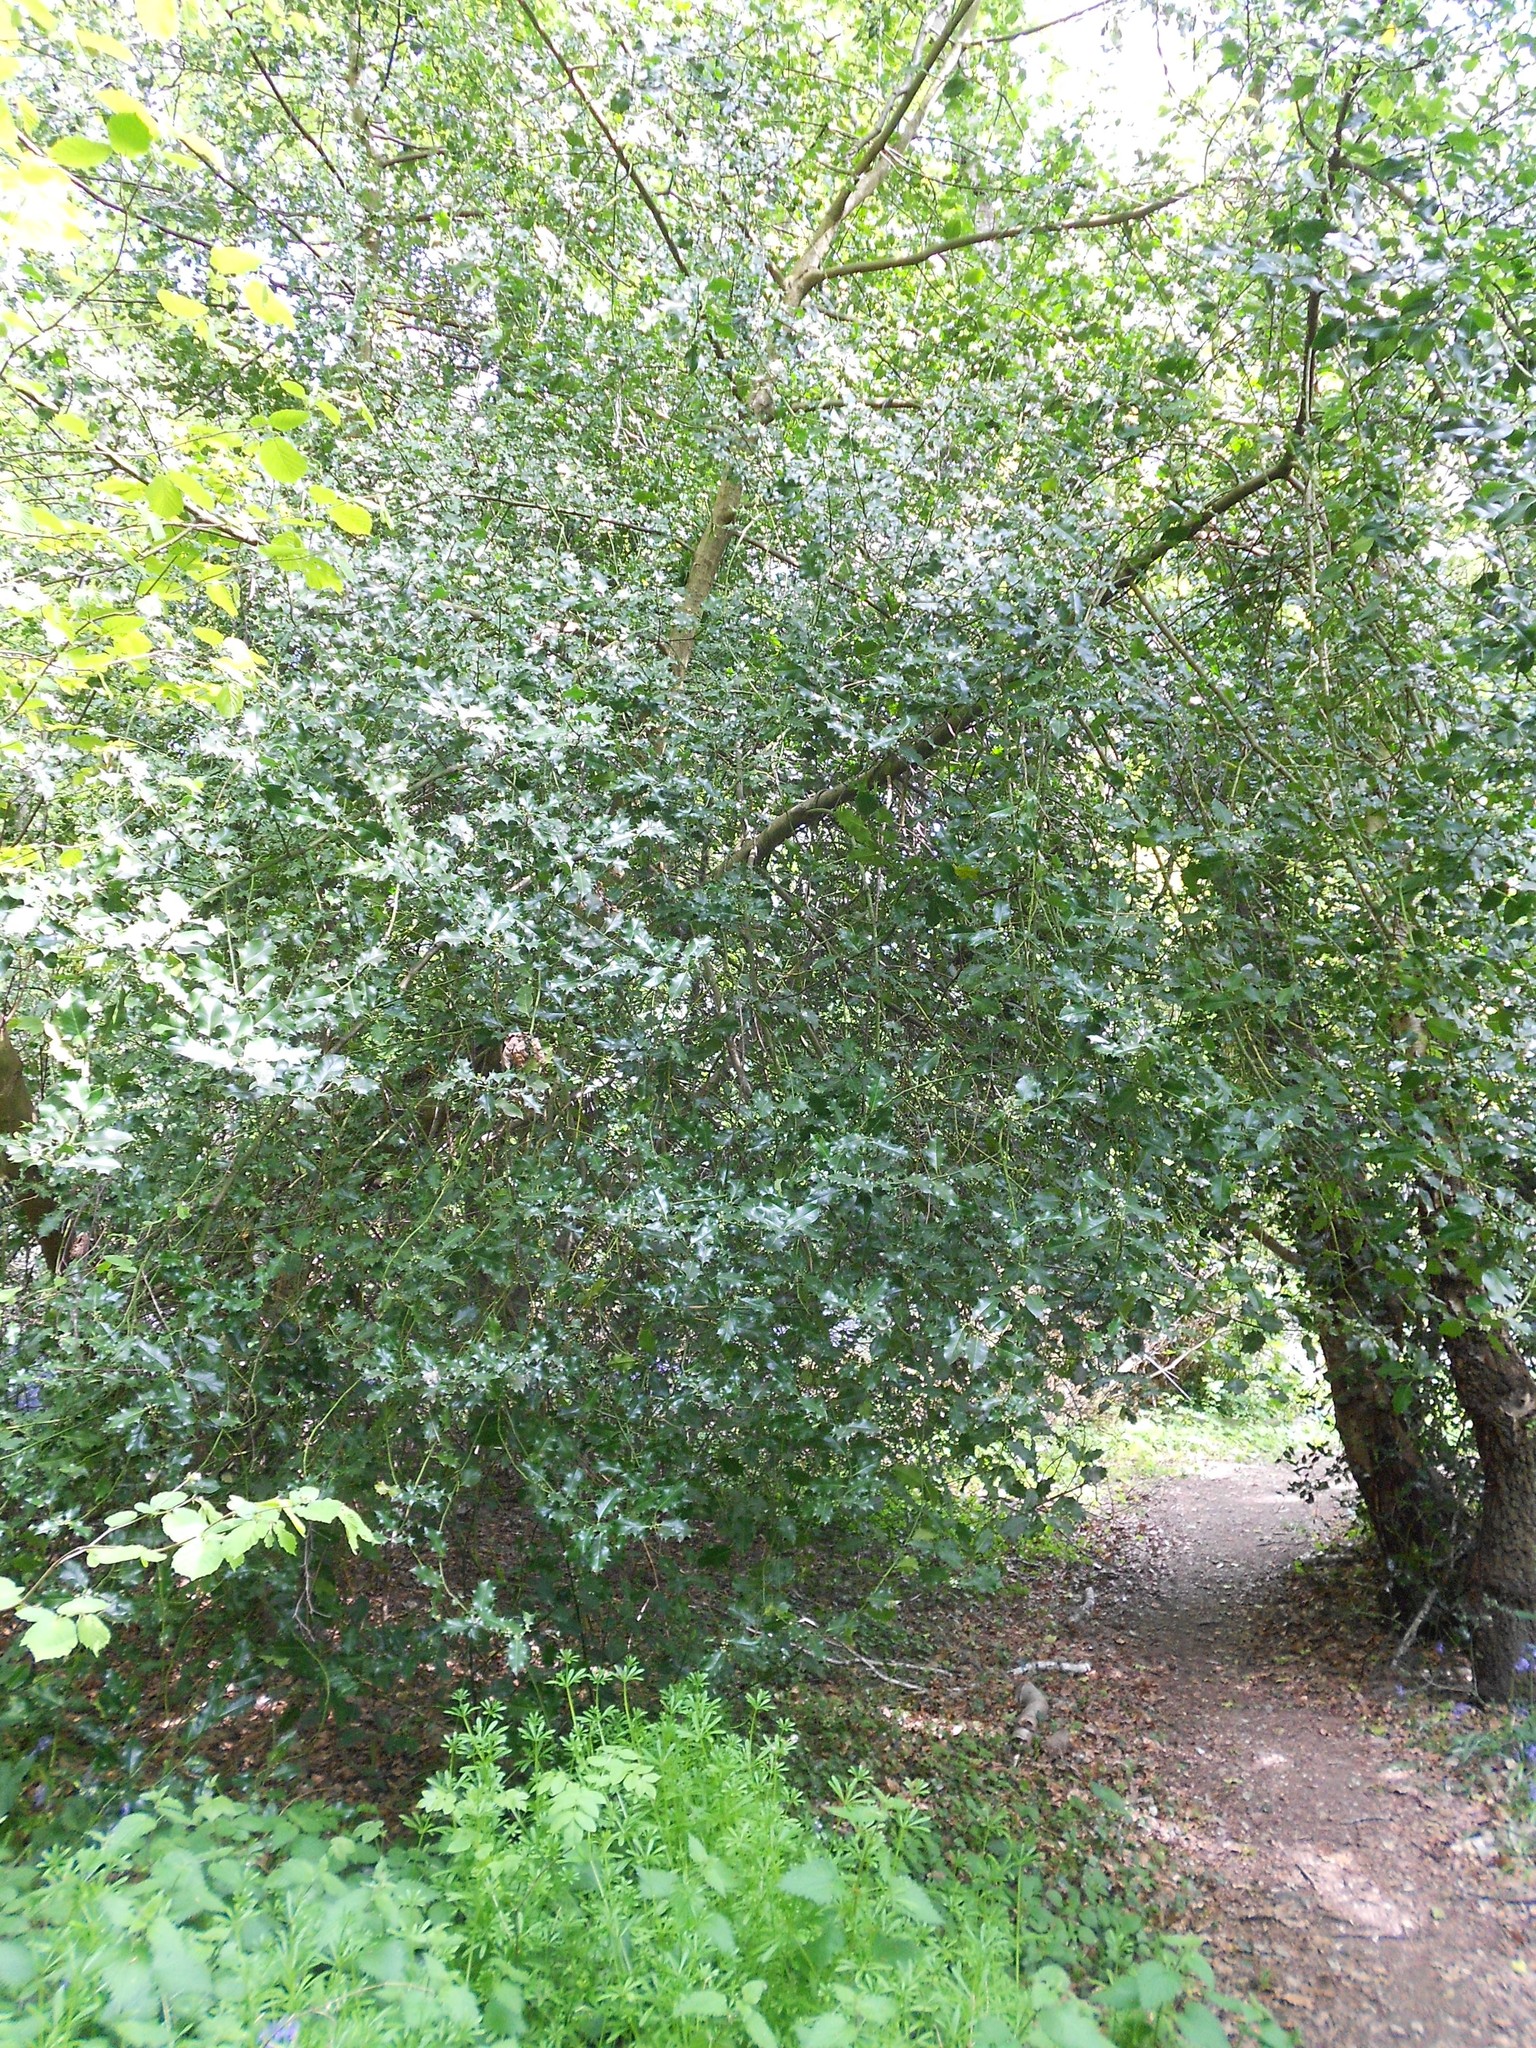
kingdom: Plantae
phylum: Tracheophyta
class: Magnoliopsida
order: Aquifoliales
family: Aquifoliaceae
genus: Ilex
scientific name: Ilex aquifolium
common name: English holly
